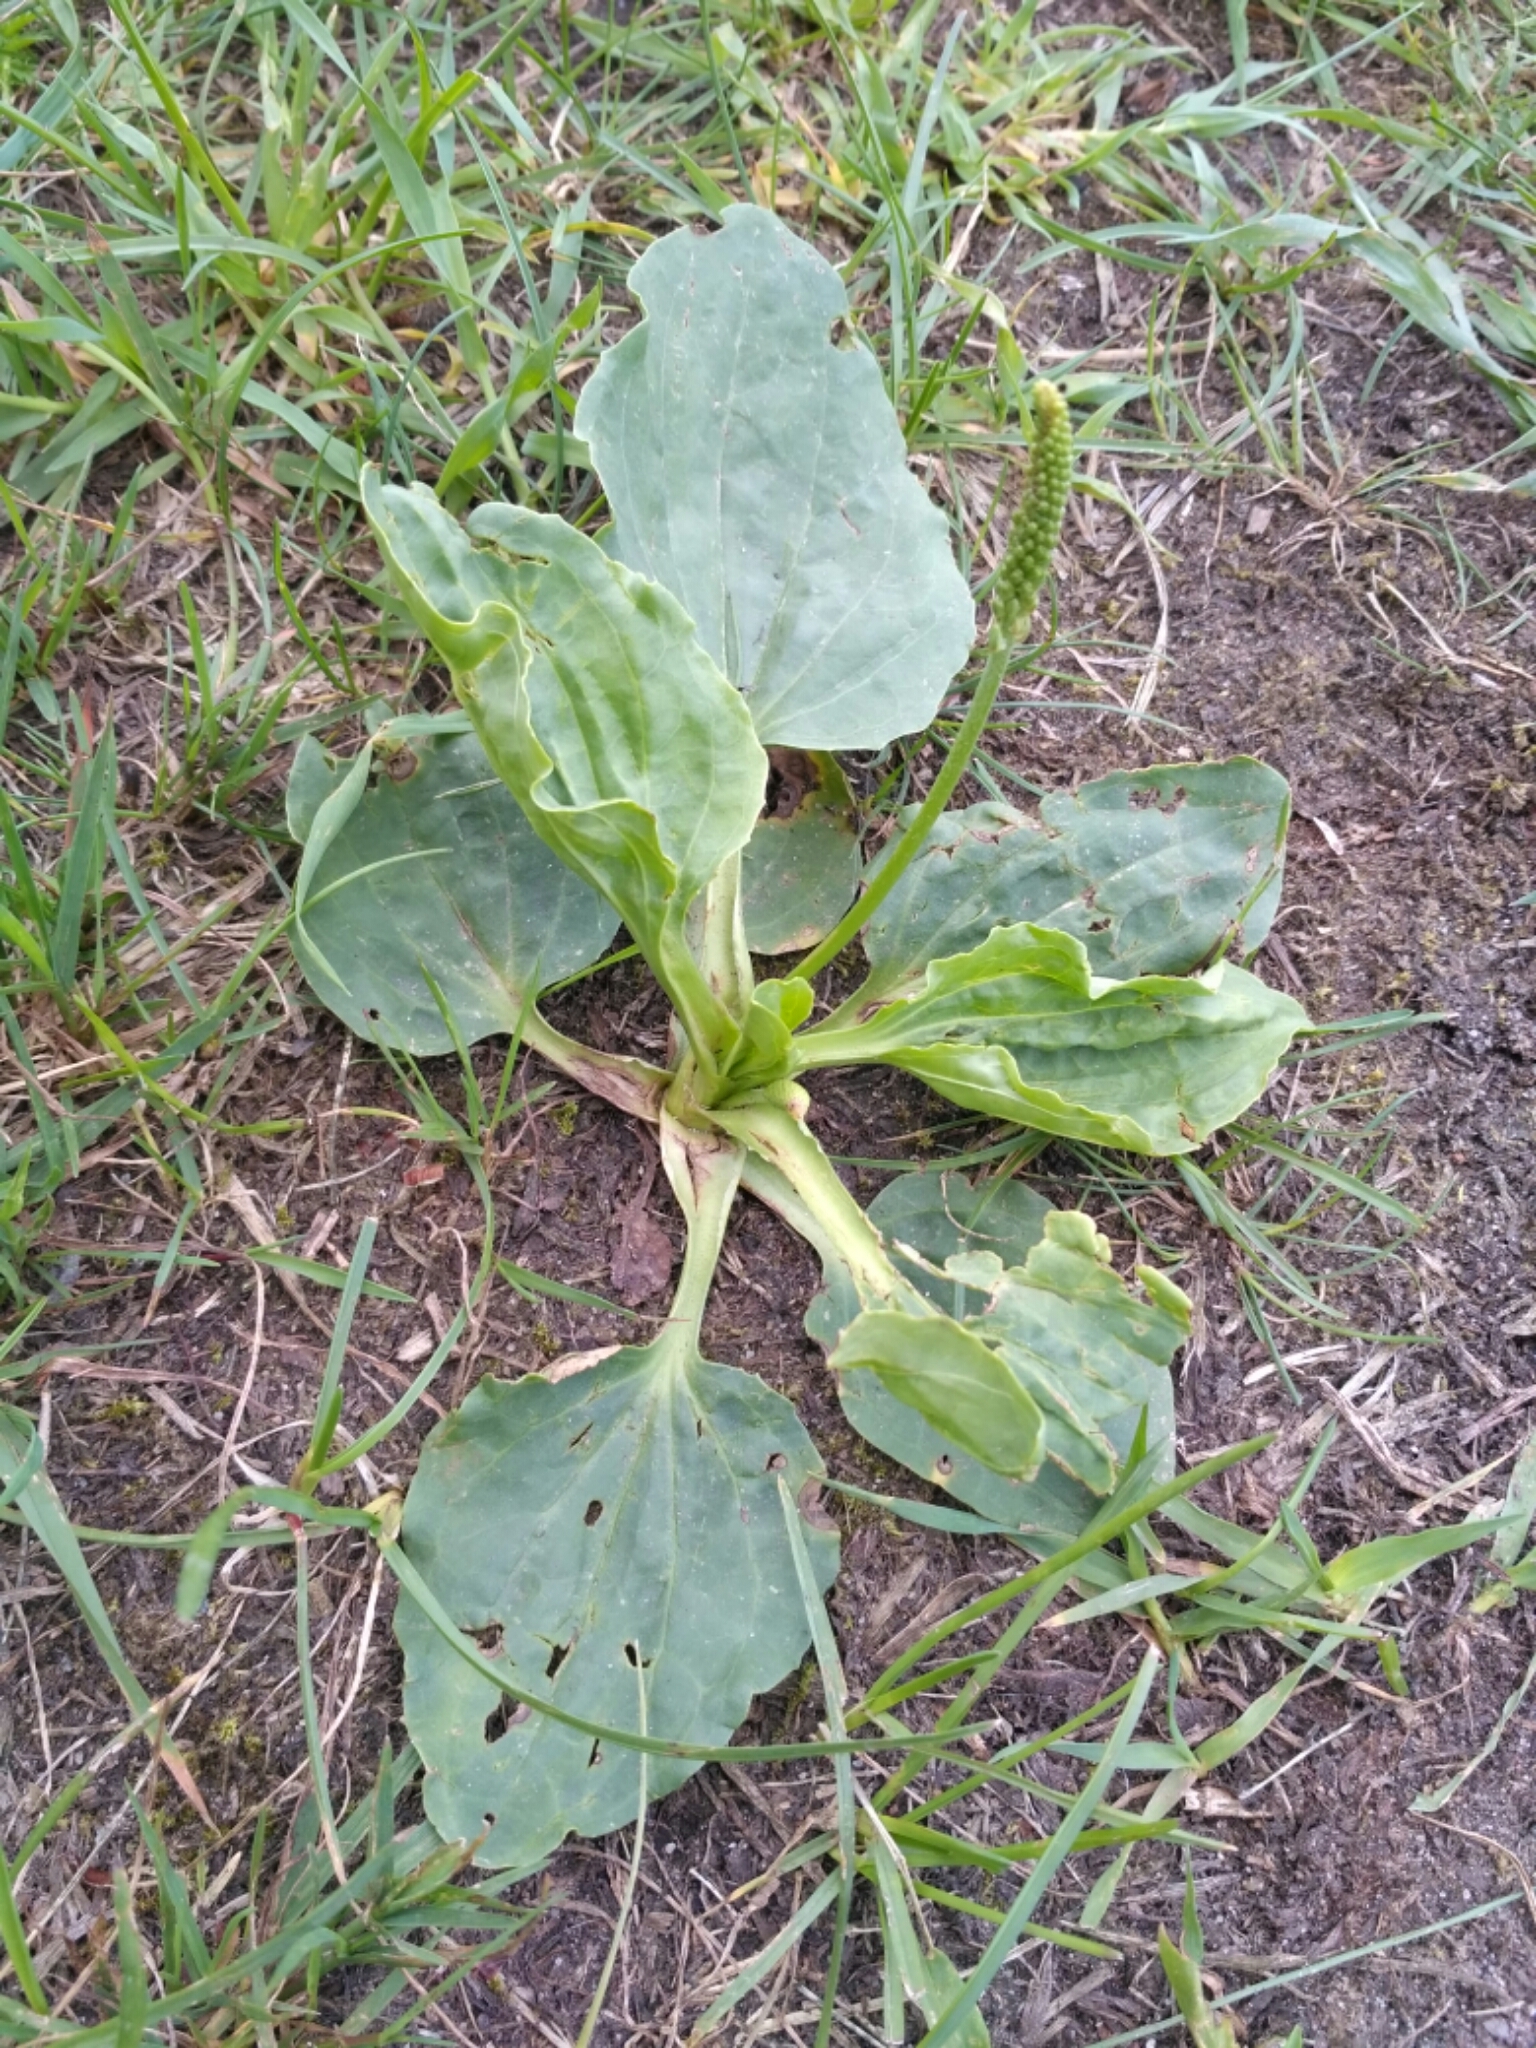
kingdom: Plantae
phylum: Tracheophyta
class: Magnoliopsida
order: Lamiales
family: Plantaginaceae
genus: Plantago
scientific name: Plantago major
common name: Common plantain
